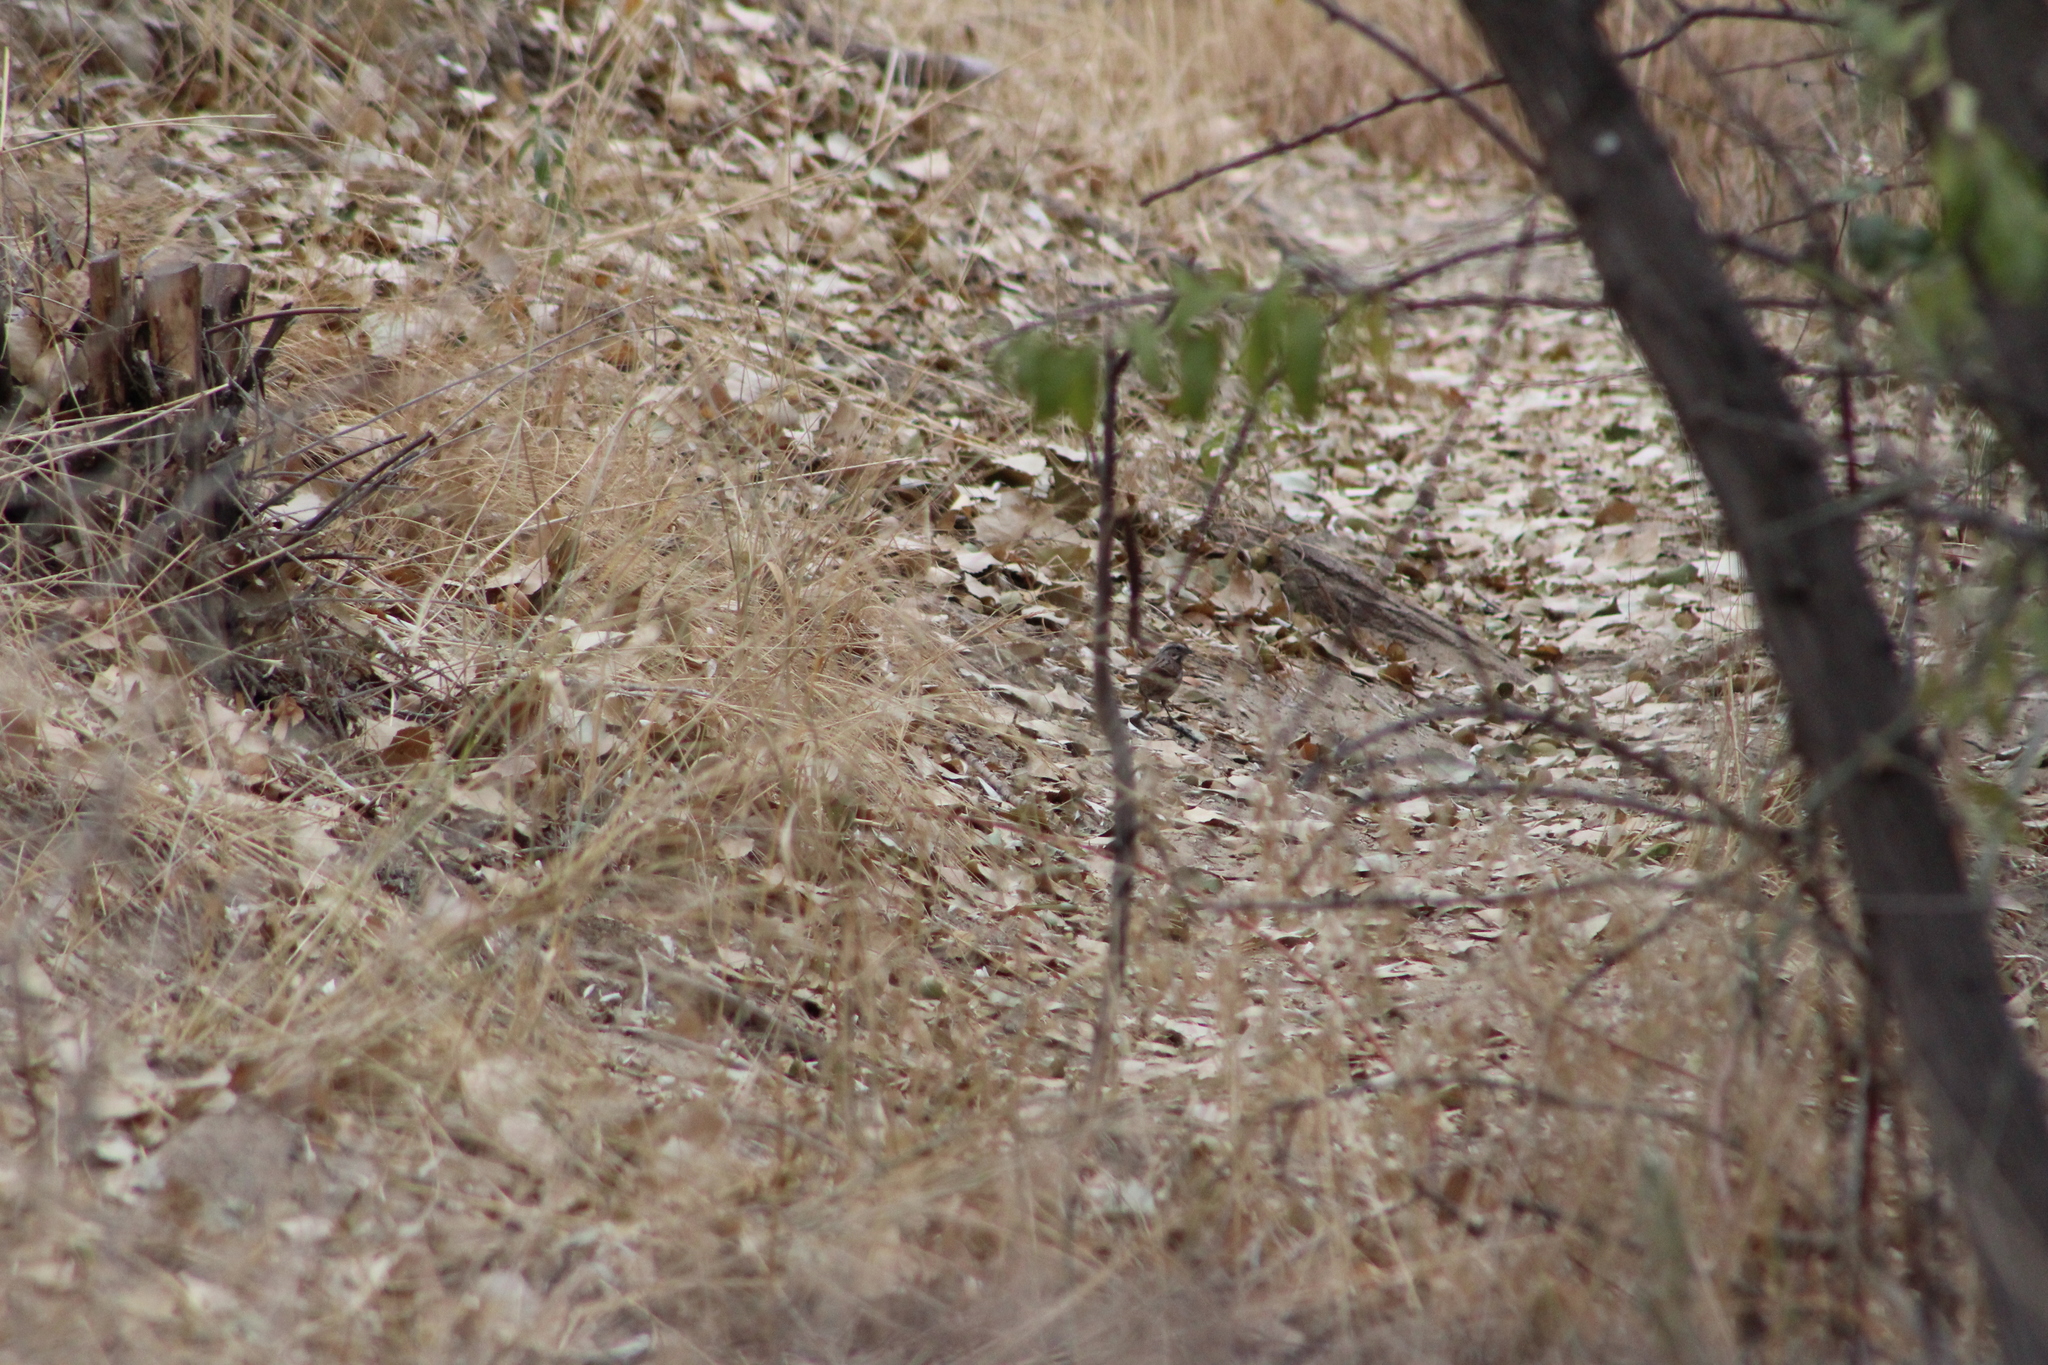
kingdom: Animalia
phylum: Chordata
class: Aves
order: Passeriformes
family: Passerellidae
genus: Melospiza
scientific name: Melospiza melodia
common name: Song sparrow
